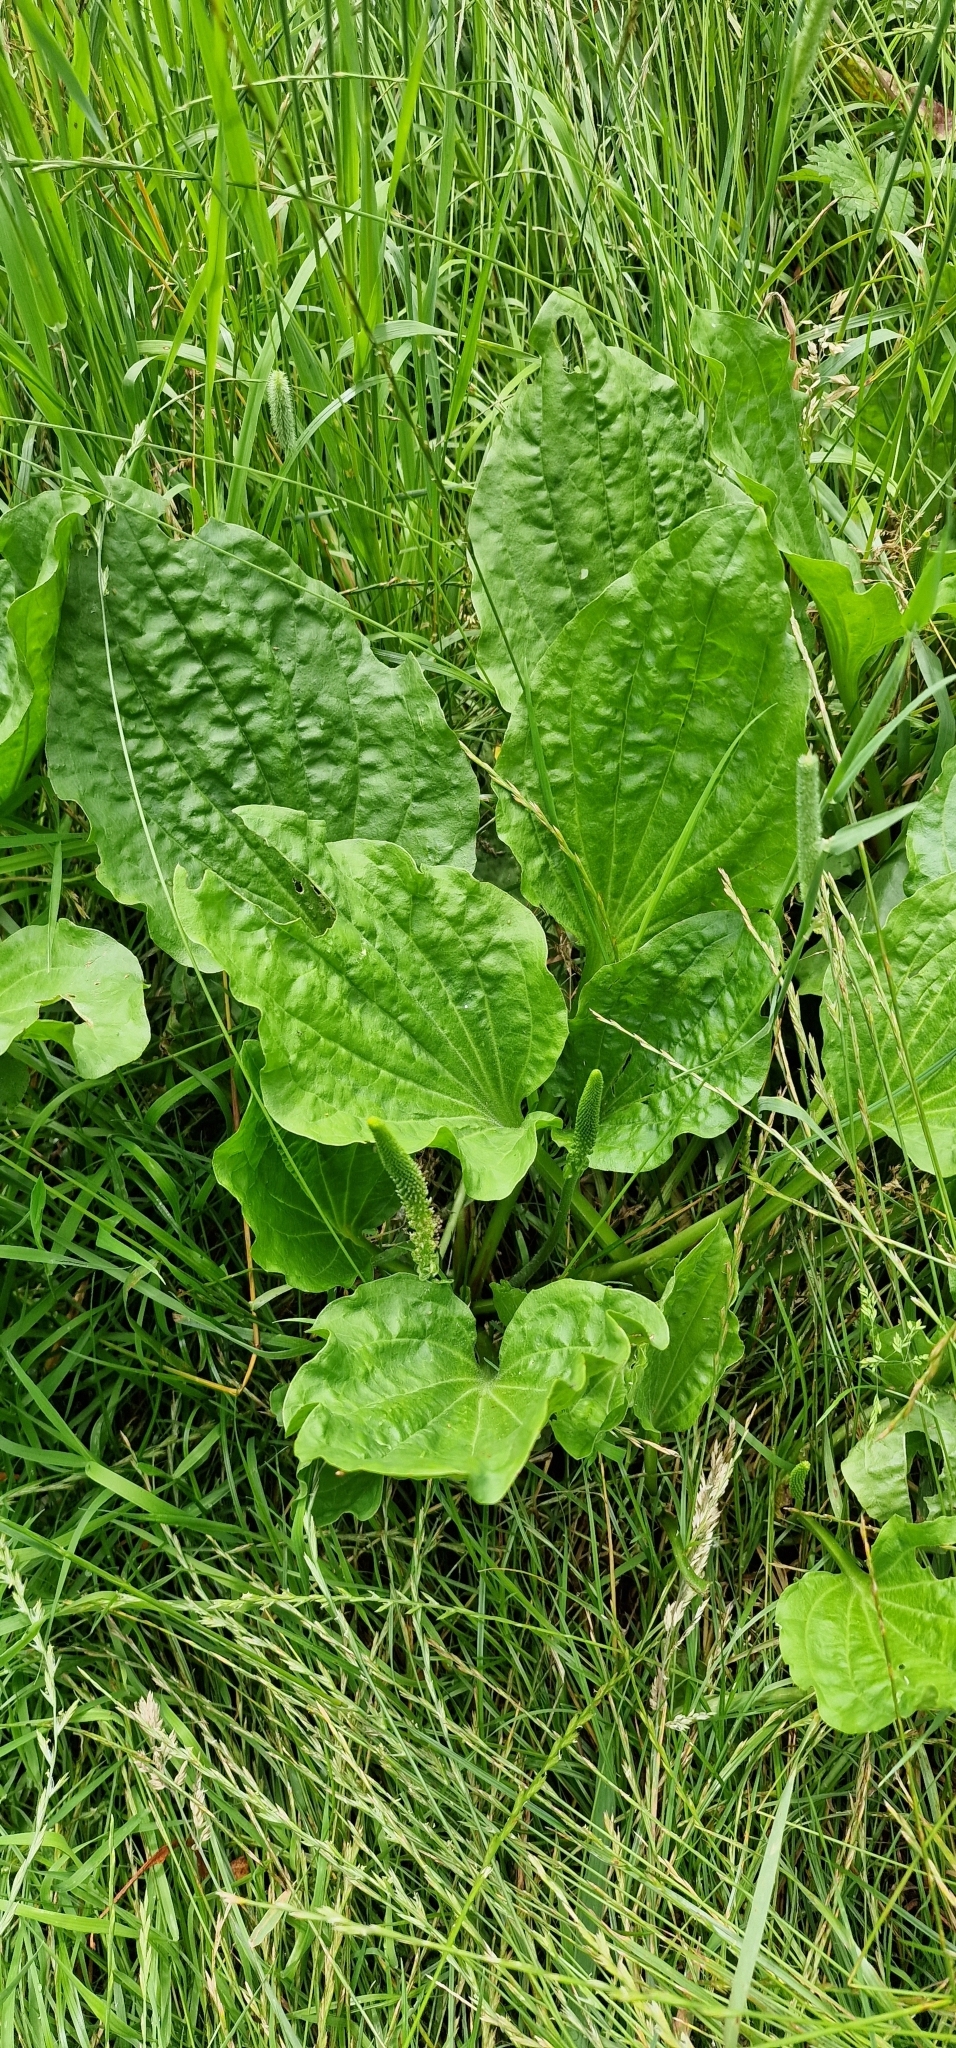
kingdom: Plantae
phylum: Tracheophyta
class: Magnoliopsida
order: Lamiales
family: Plantaginaceae
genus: Plantago
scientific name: Plantago major
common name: Common plantain
